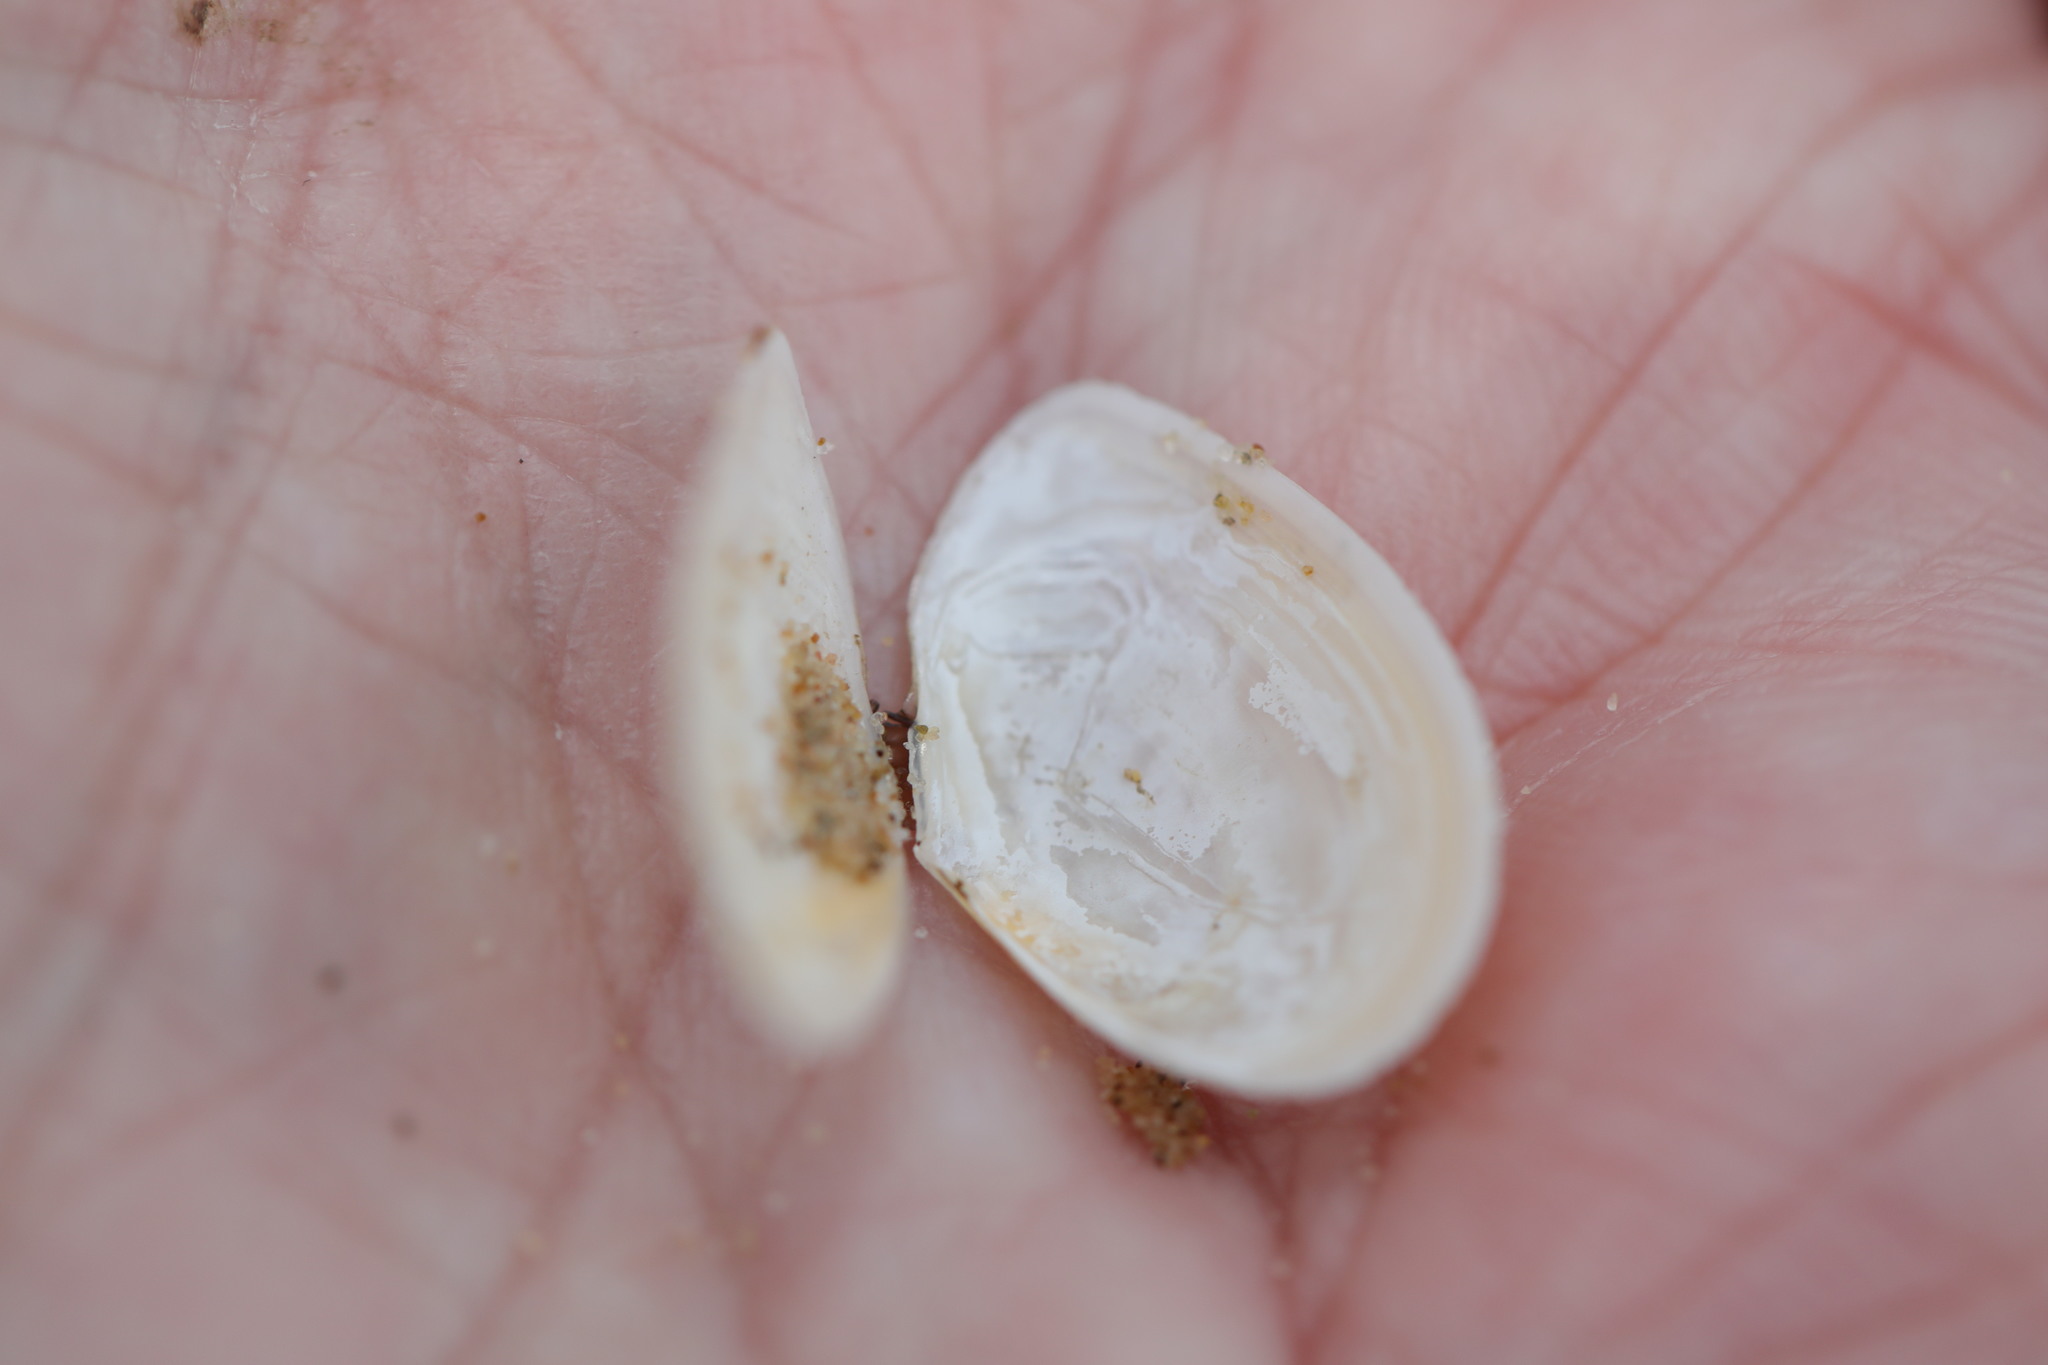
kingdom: Animalia
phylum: Mollusca
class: Bivalvia
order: Cardiida
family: Tellinidae
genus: Macomangulus
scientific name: Macomangulus tenuis
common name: Thin tellin
